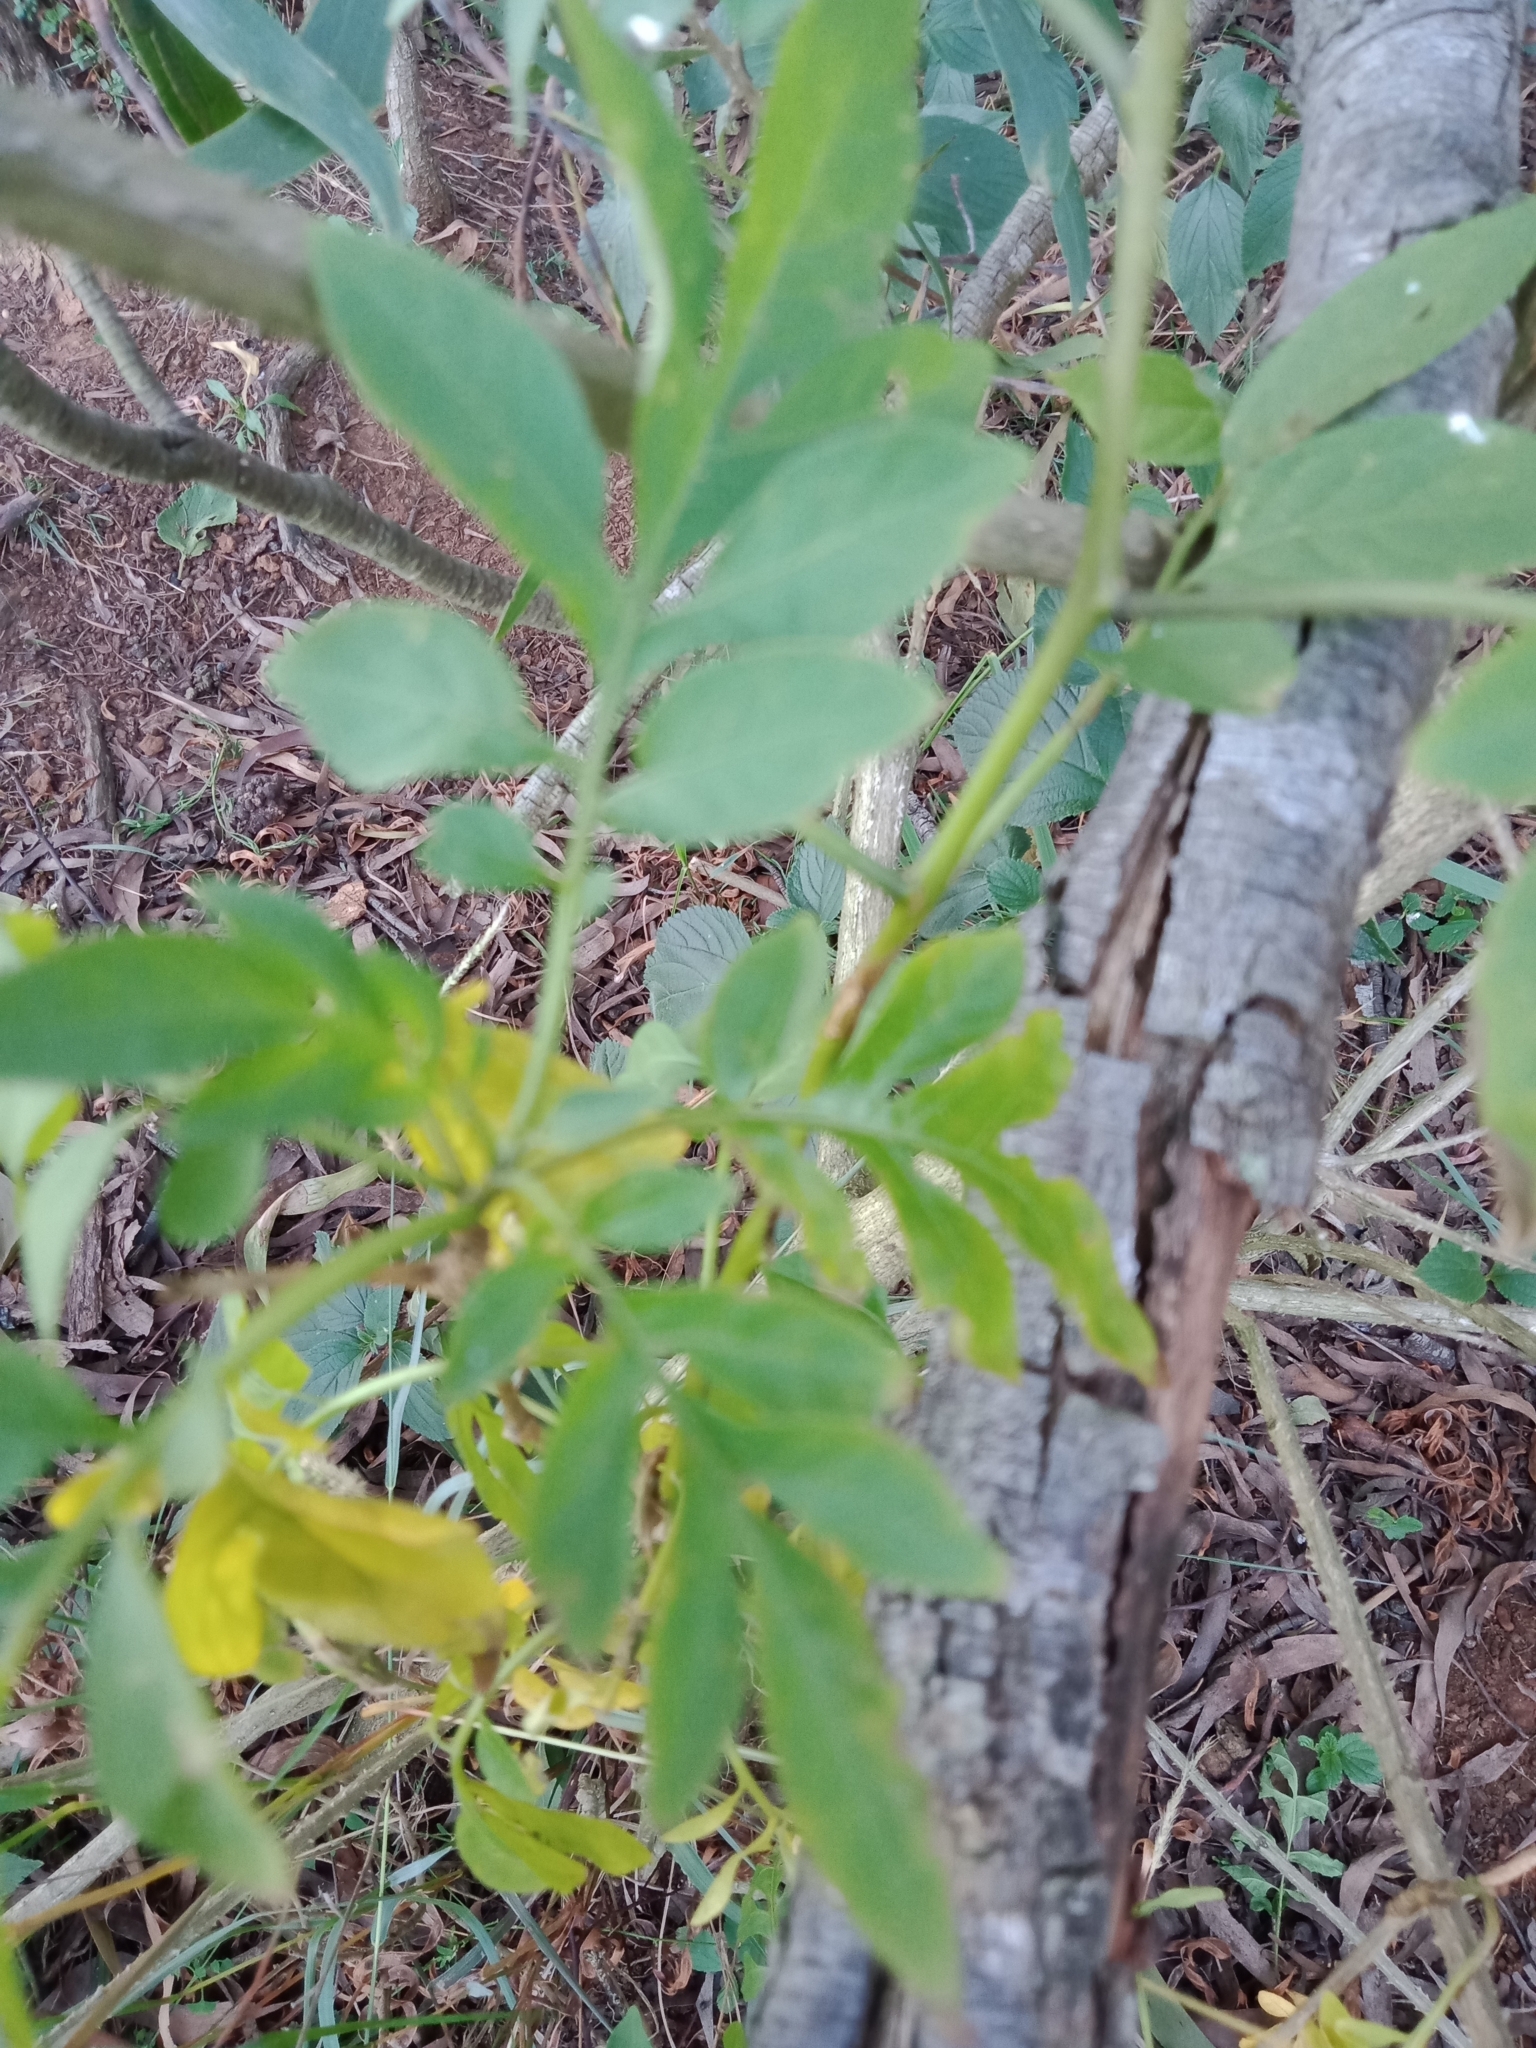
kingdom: Plantae
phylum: Tracheophyta
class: Magnoliopsida
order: Solanales
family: Solanaceae
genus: Solanum
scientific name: Solanum seaforthianum
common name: Brazilian nightshade
